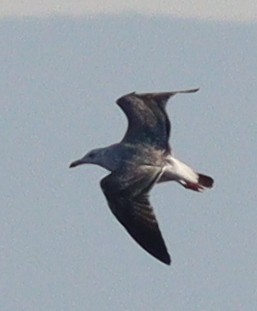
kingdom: Animalia
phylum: Chordata
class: Aves
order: Charadriiformes
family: Laridae
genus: Larus
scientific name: Larus cachinnans
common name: Caspian gull
